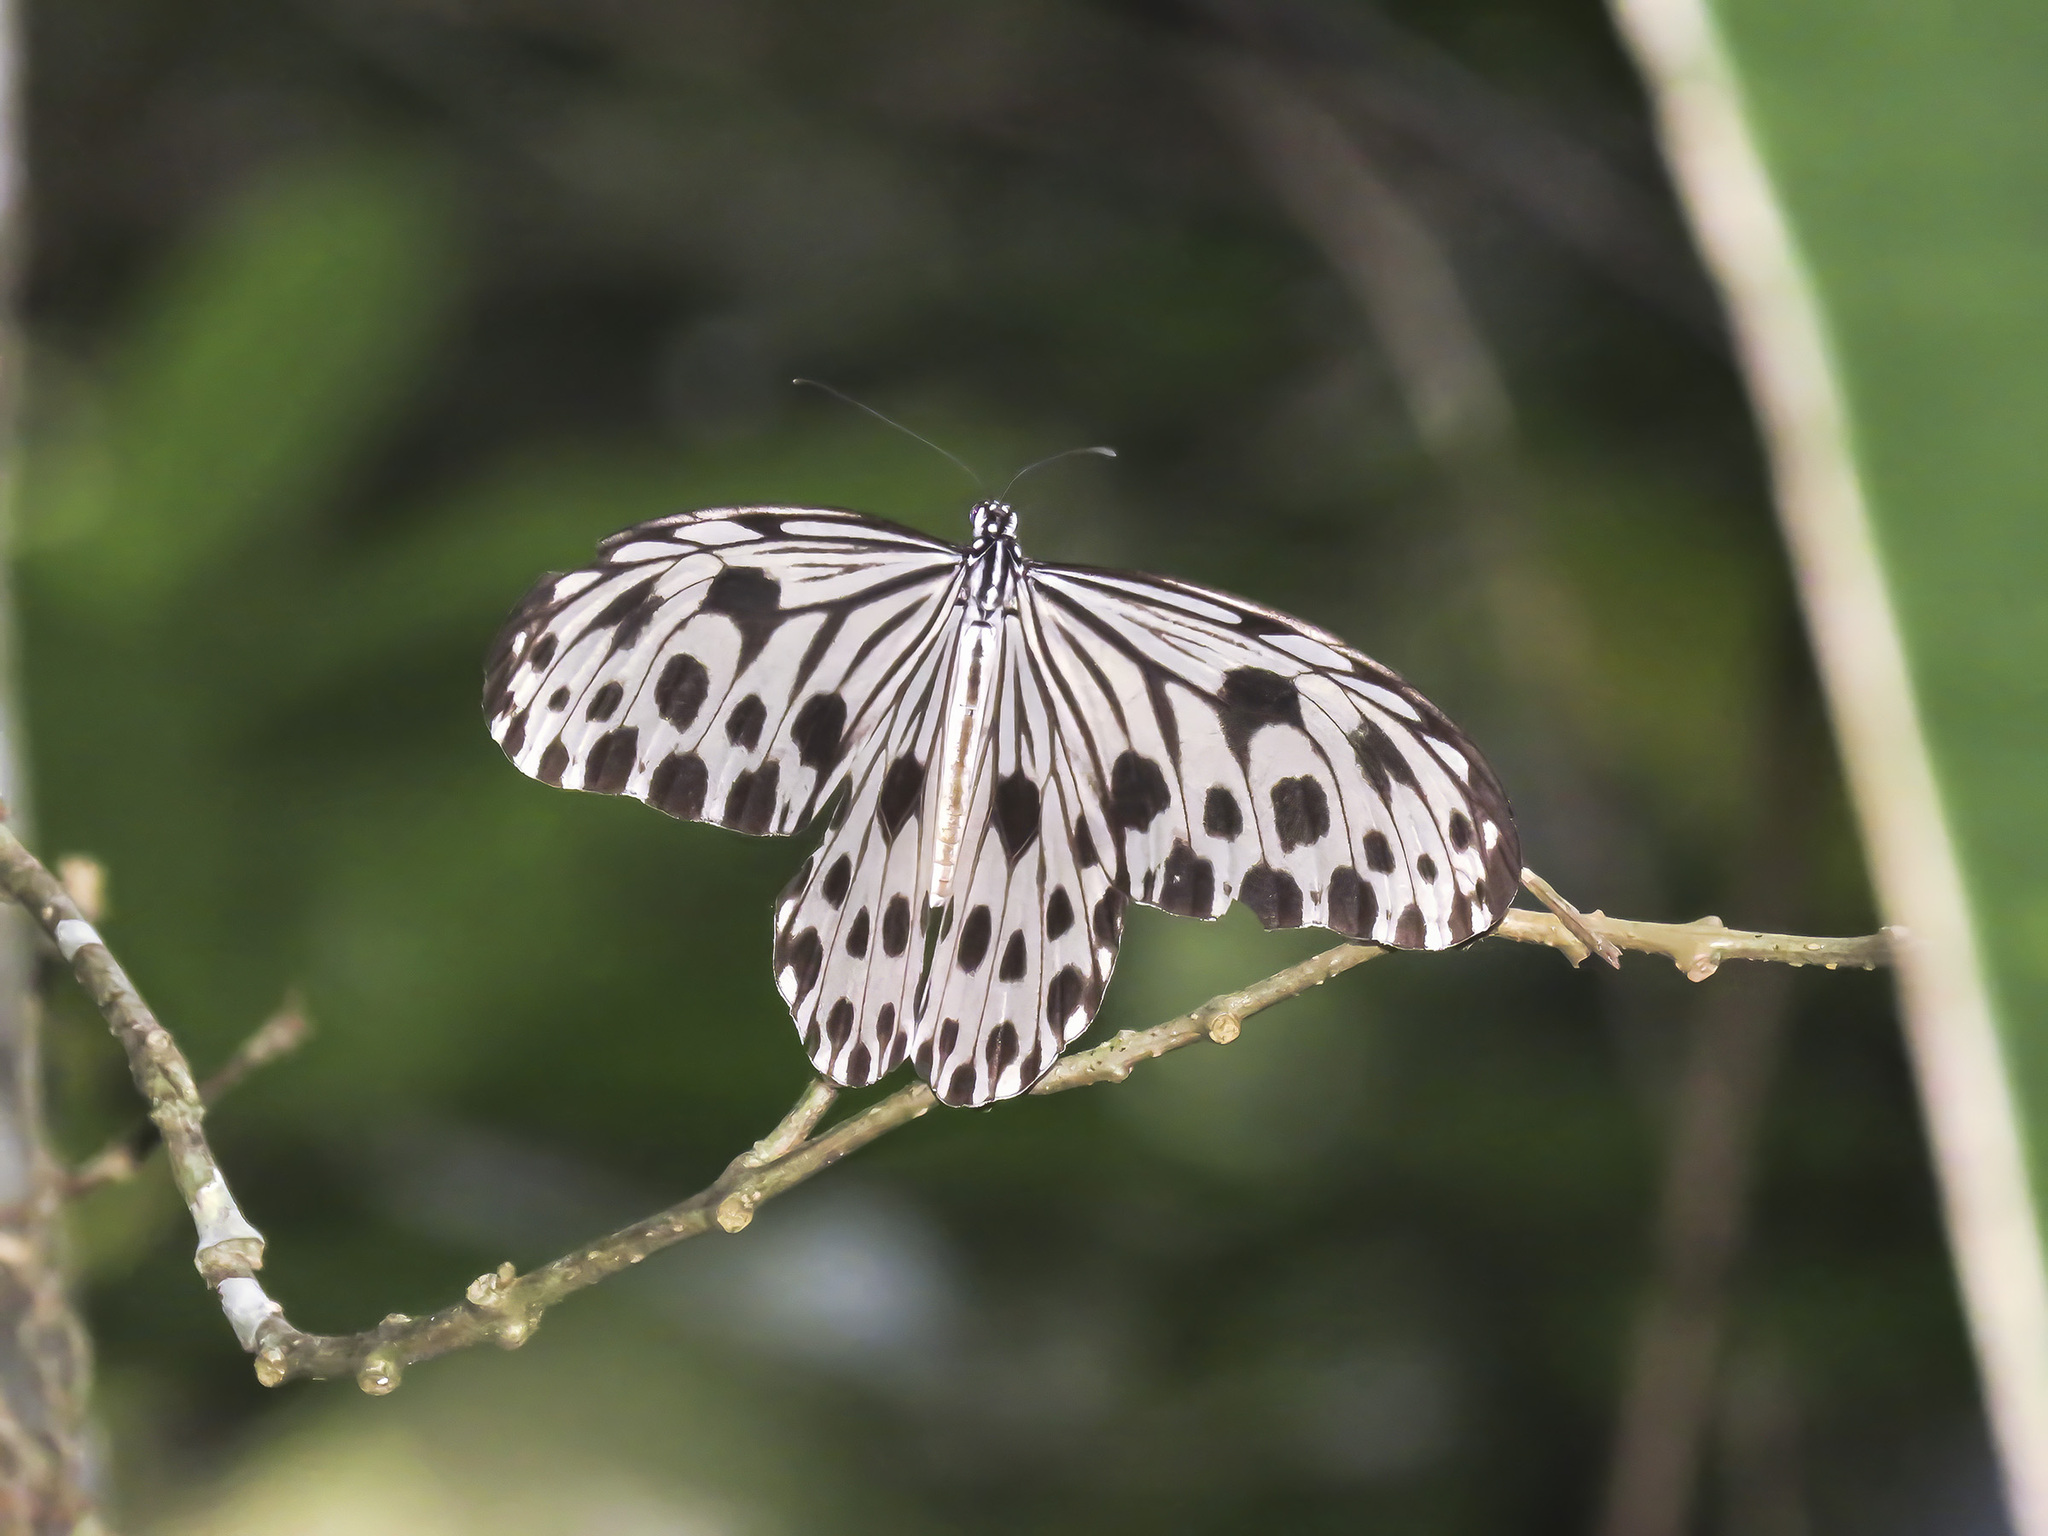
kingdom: Animalia
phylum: Arthropoda
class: Insecta
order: Lepidoptera
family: Nymphalidae
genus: Ideopsis
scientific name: Ideopsis gaura
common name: Smaller wood nymph
